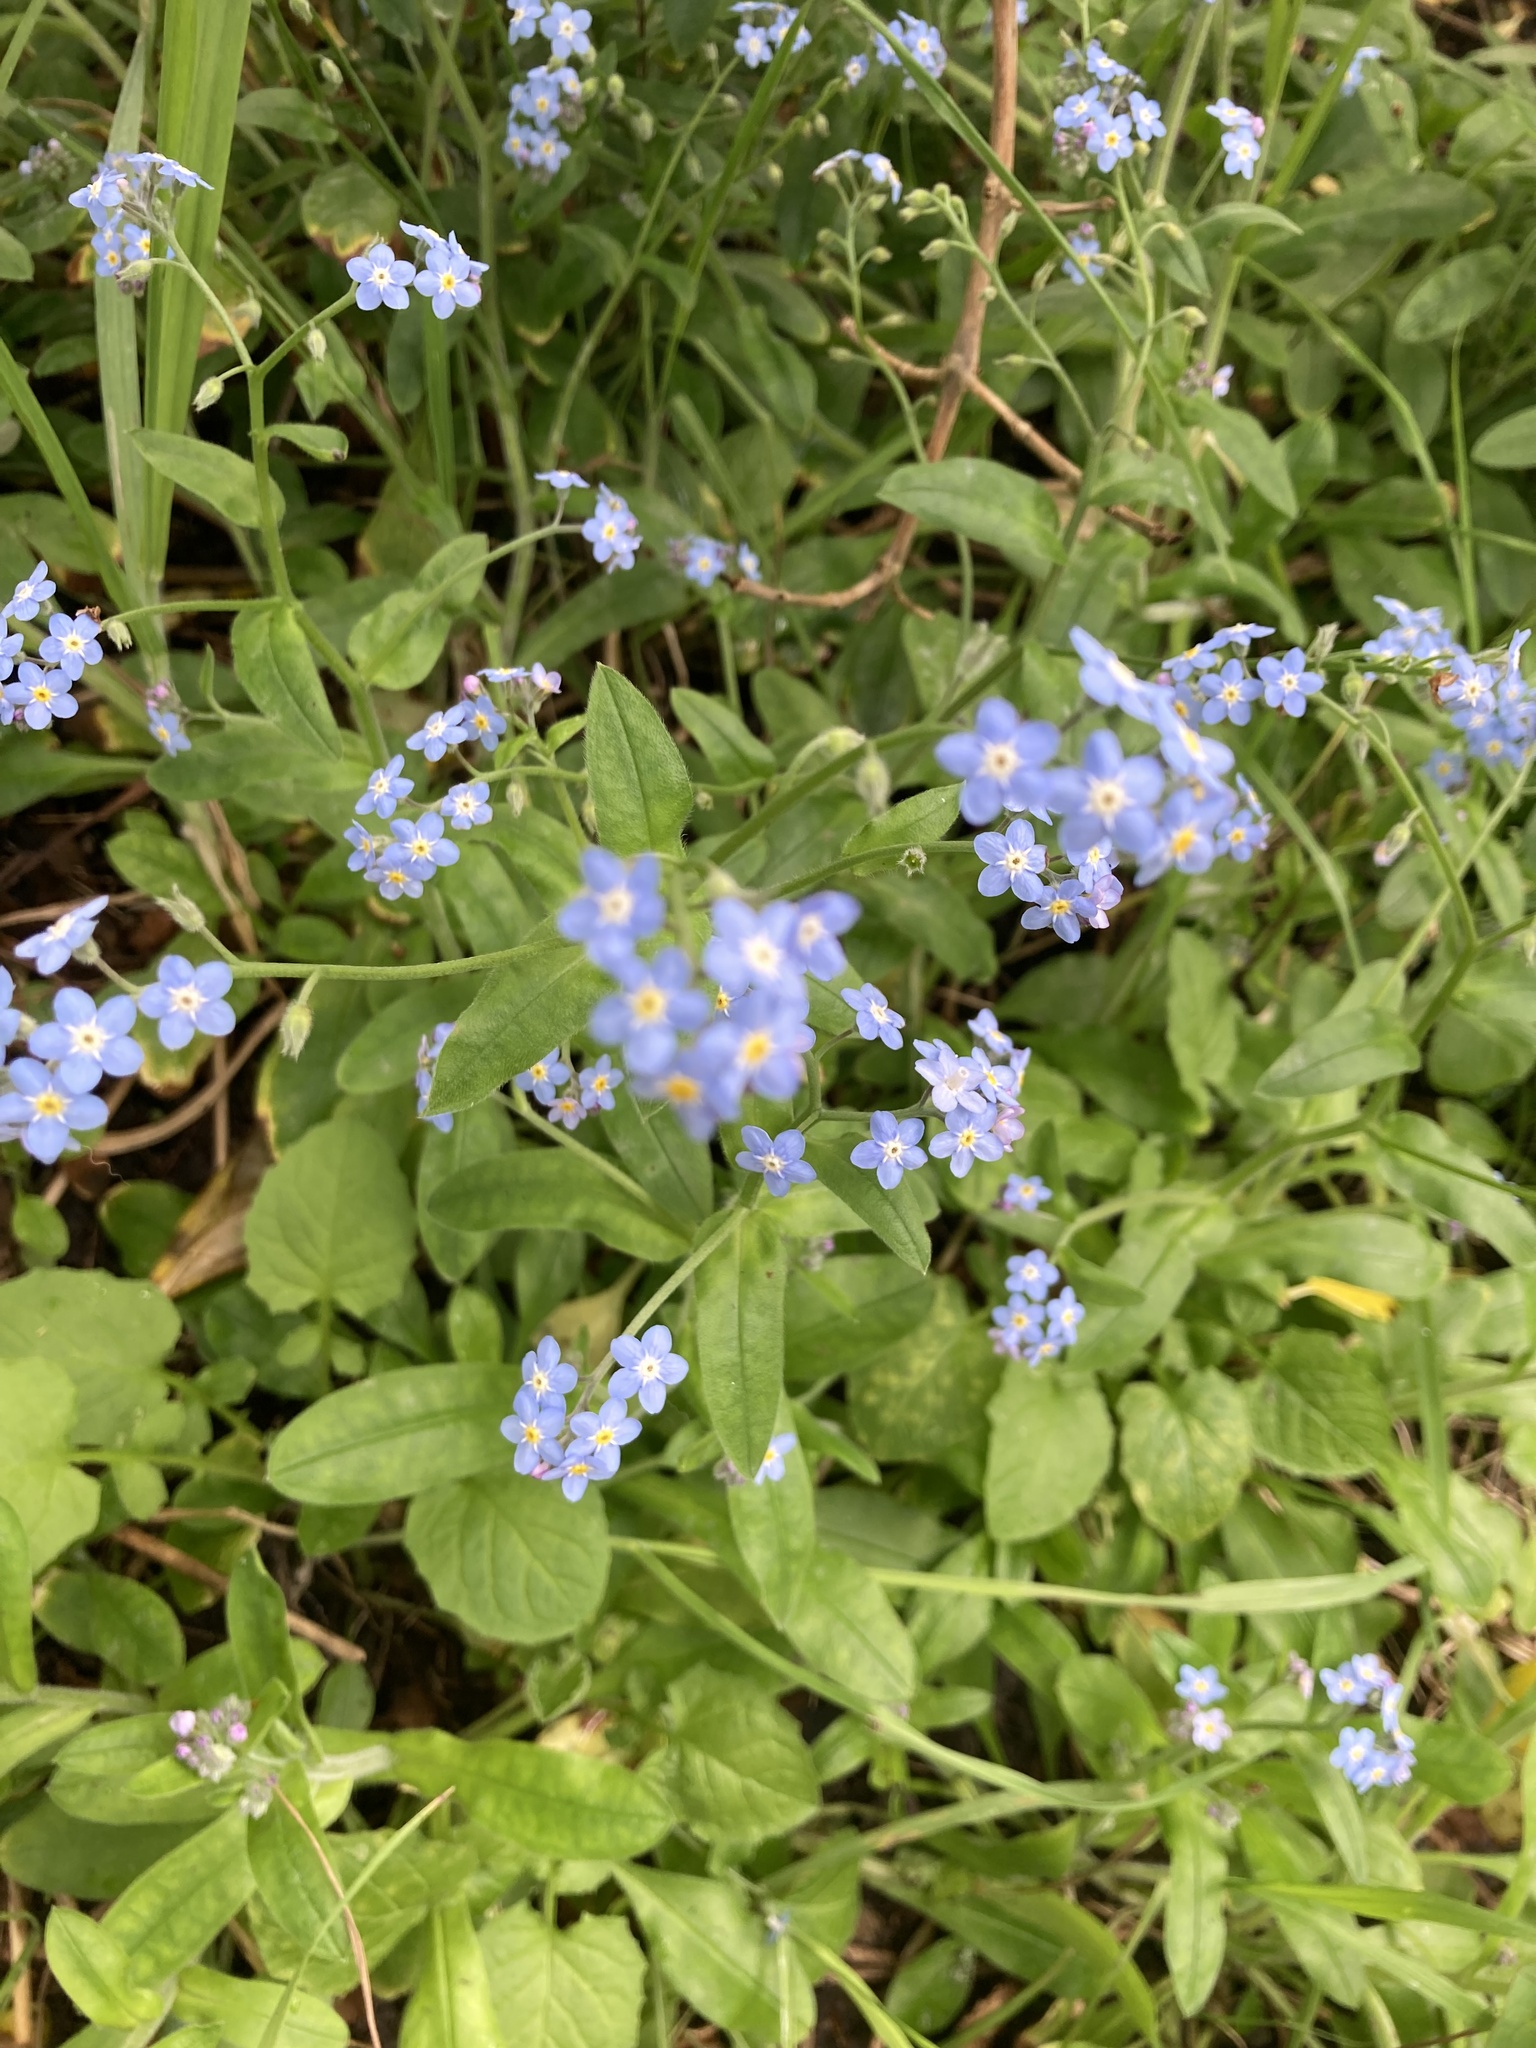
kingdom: Plantae
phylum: Tracheophyta
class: Magnoliopsida
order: Boraginales
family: Boraginaceae
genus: Myosotis
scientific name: Myosotis sylvatica
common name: Wood forget-me-not
